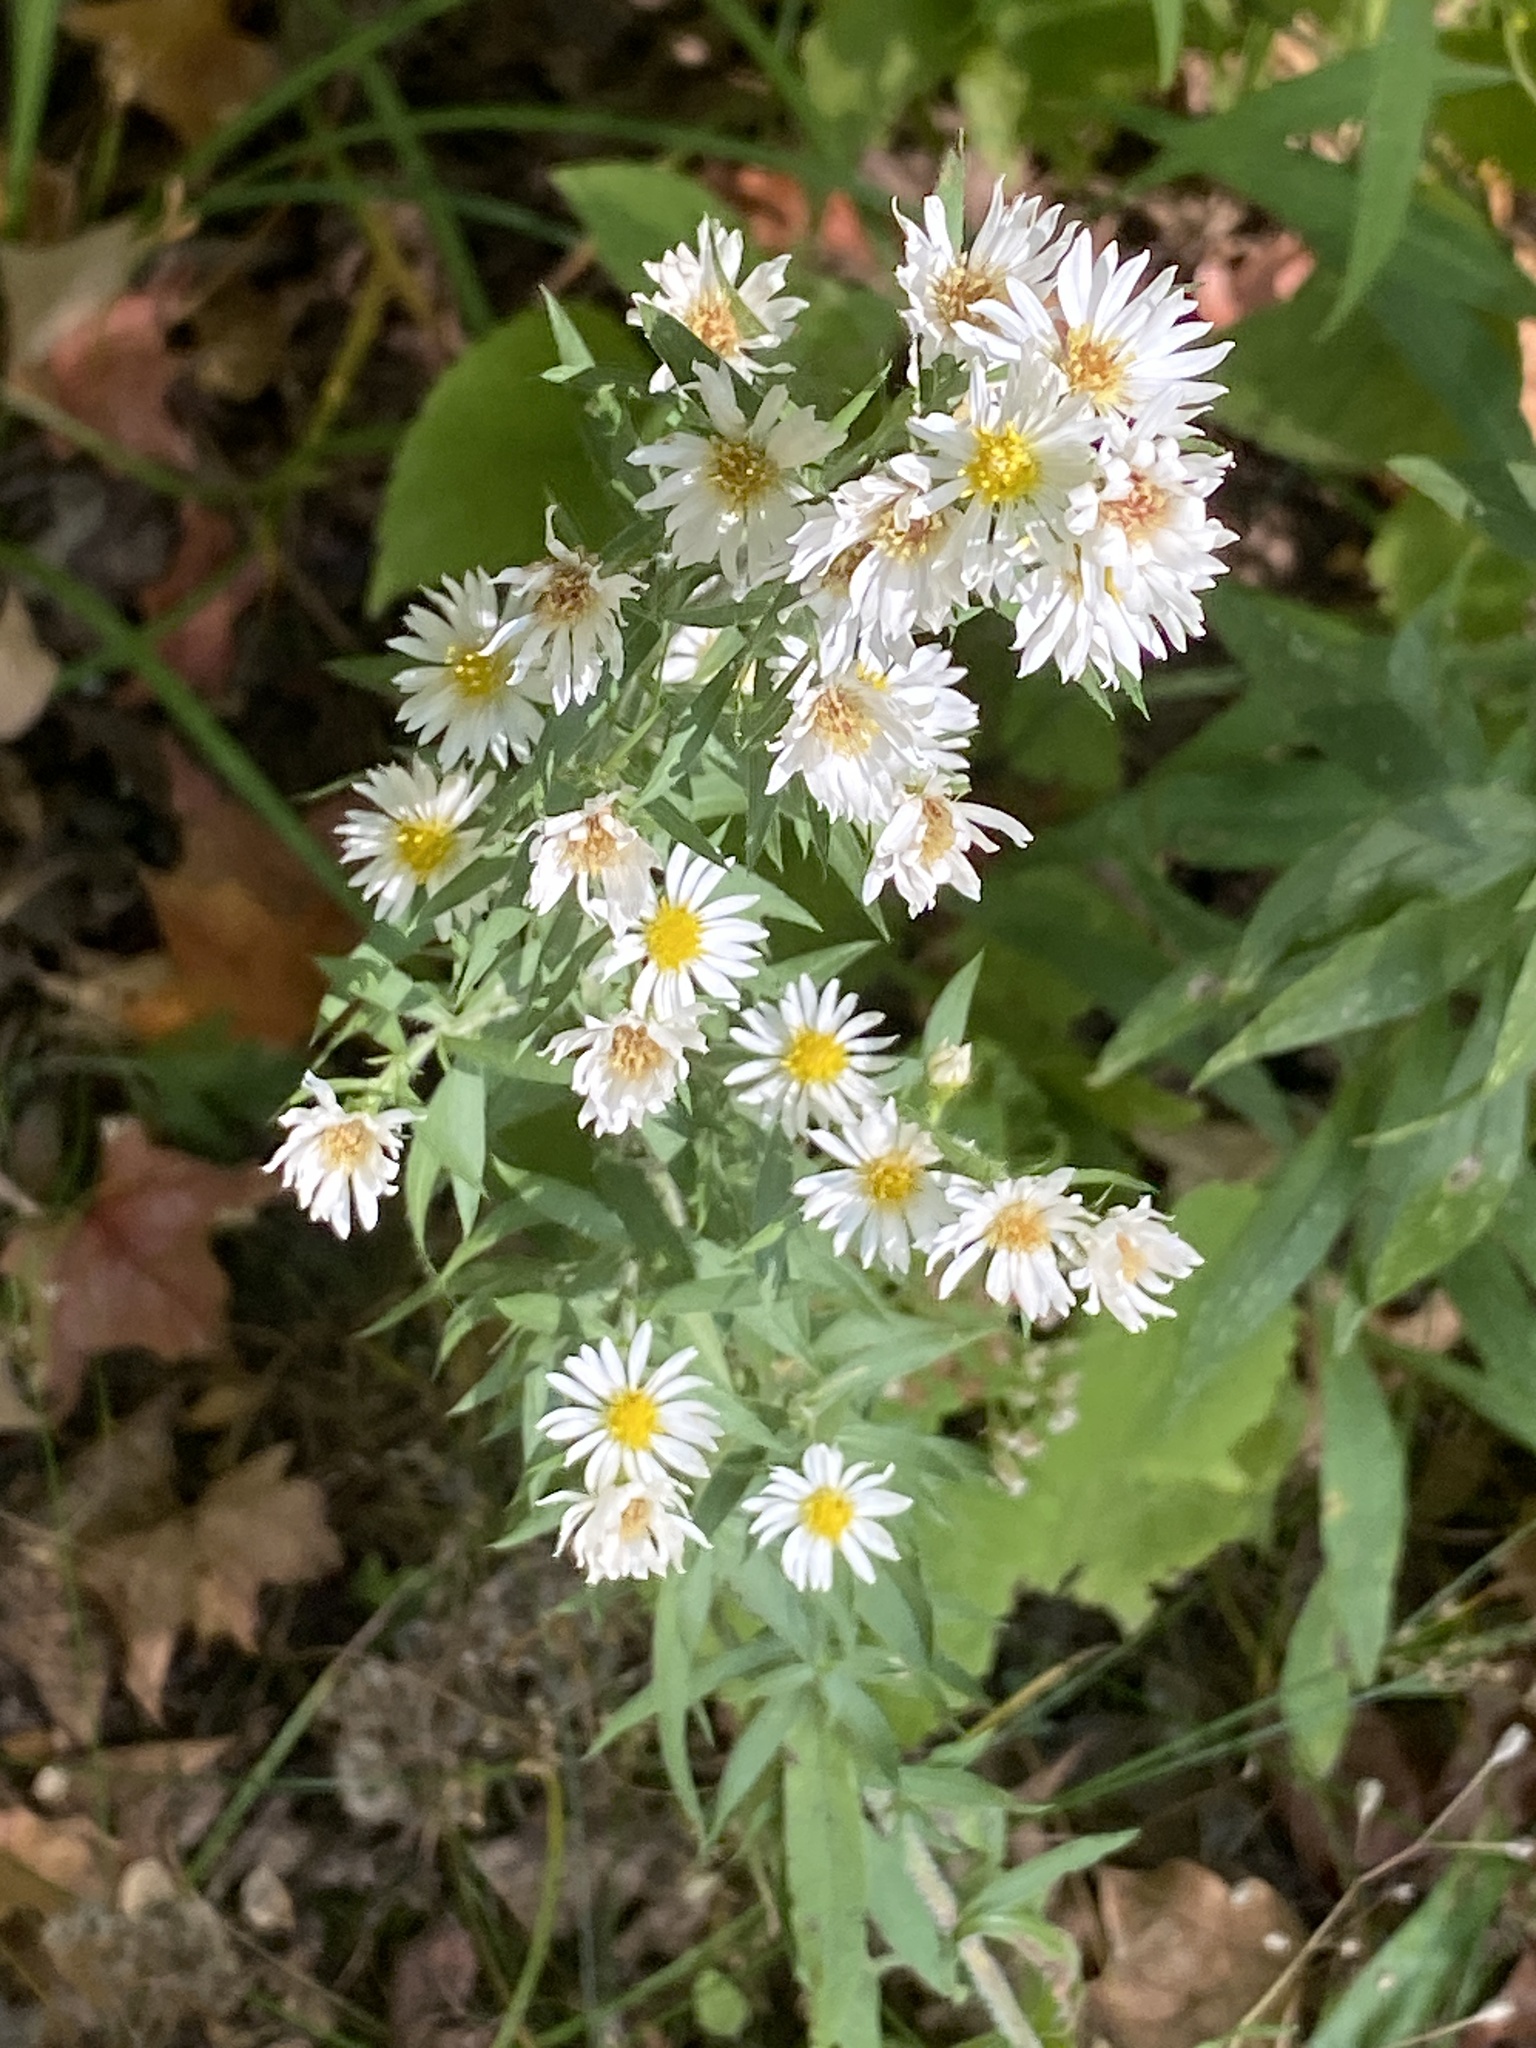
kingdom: Plantae
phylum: Tracheophyta
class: Magnoliopsida
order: Asterales
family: Asteraceae
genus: Symphyotrichum
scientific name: Symphyotrichum pilosum
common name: Awl aster
